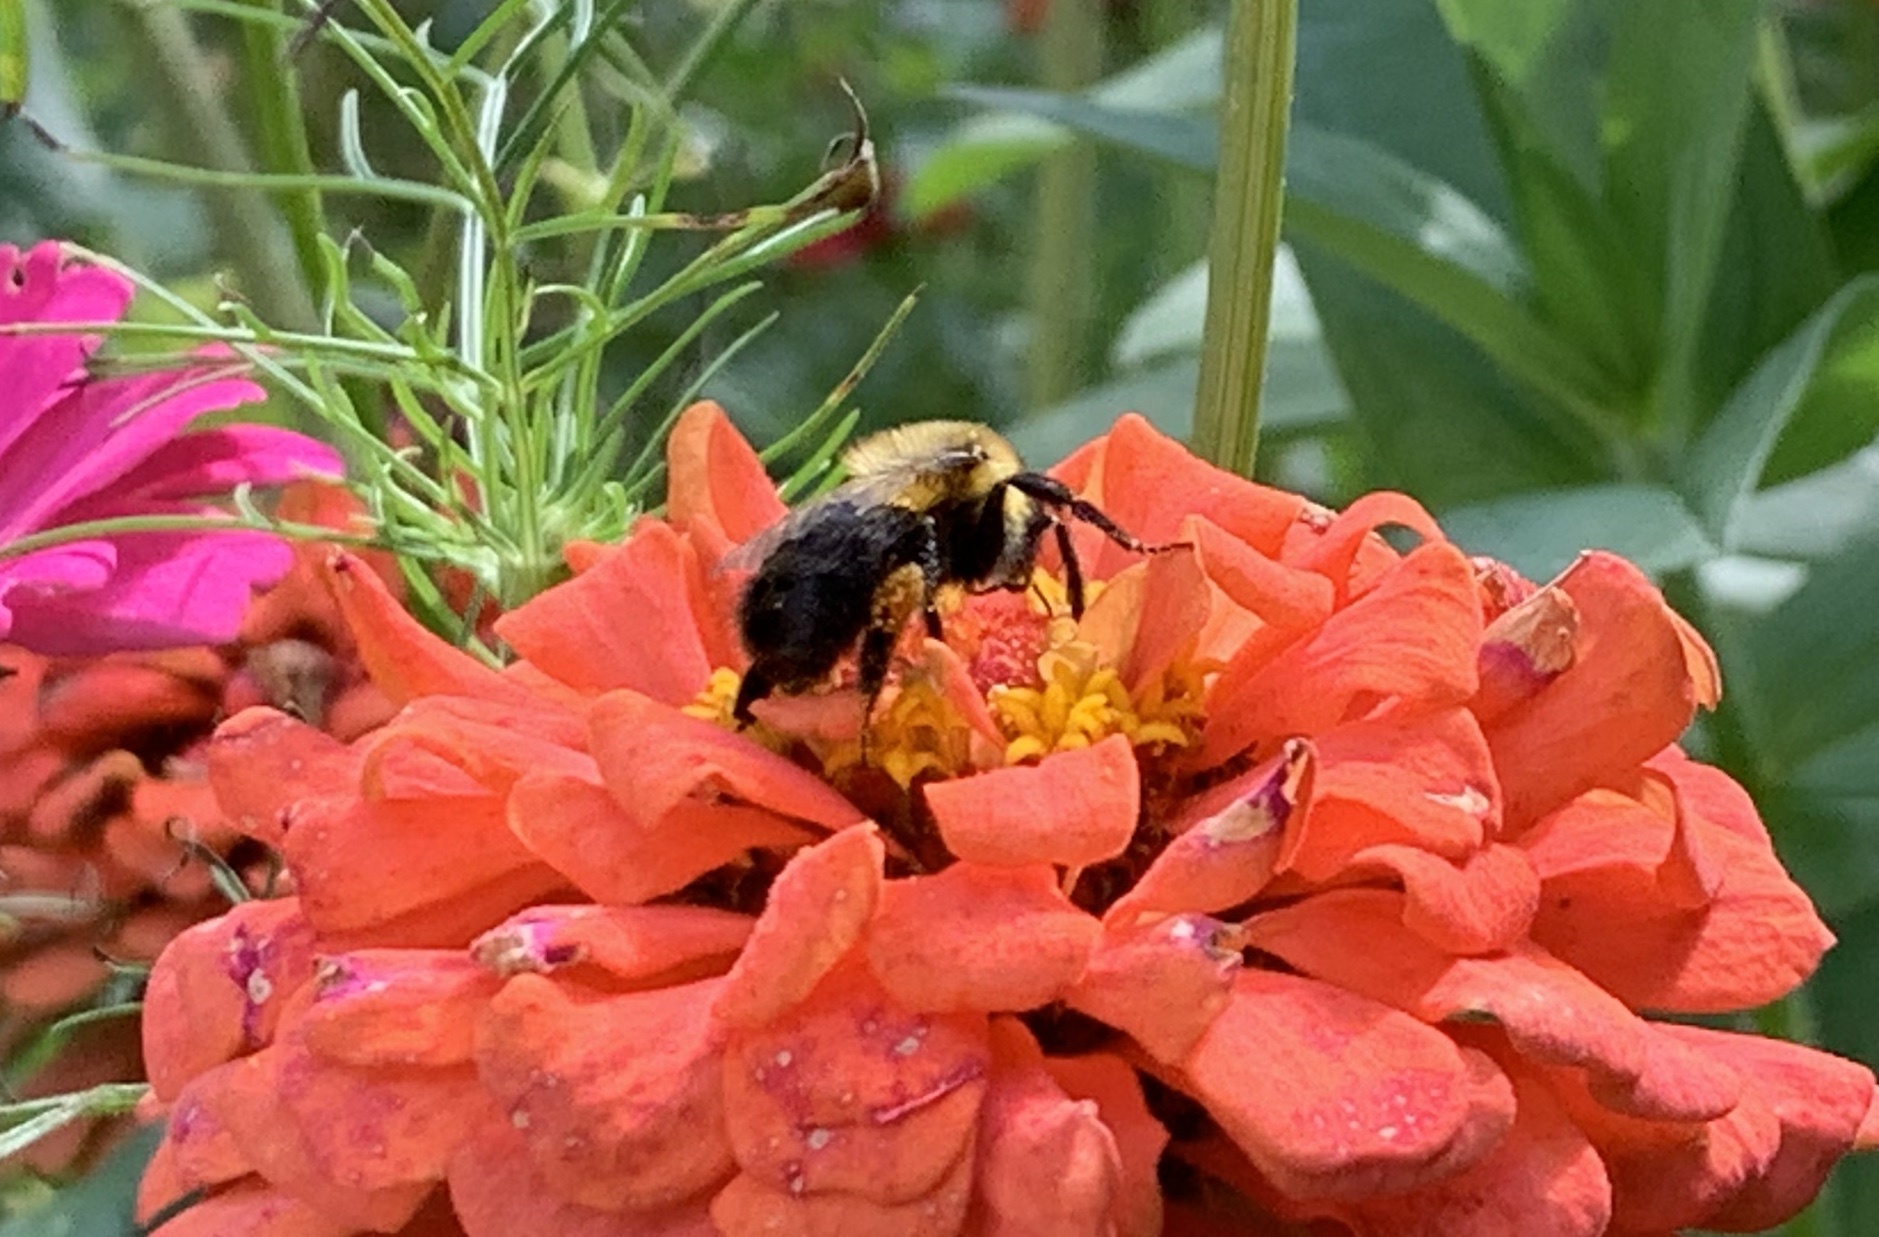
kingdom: Animalia
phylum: Arthropoda
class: Insecta
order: Hymenoptera
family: Apidae
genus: Bombus
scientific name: Bombus impatiens
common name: Common eastern bumble bee
